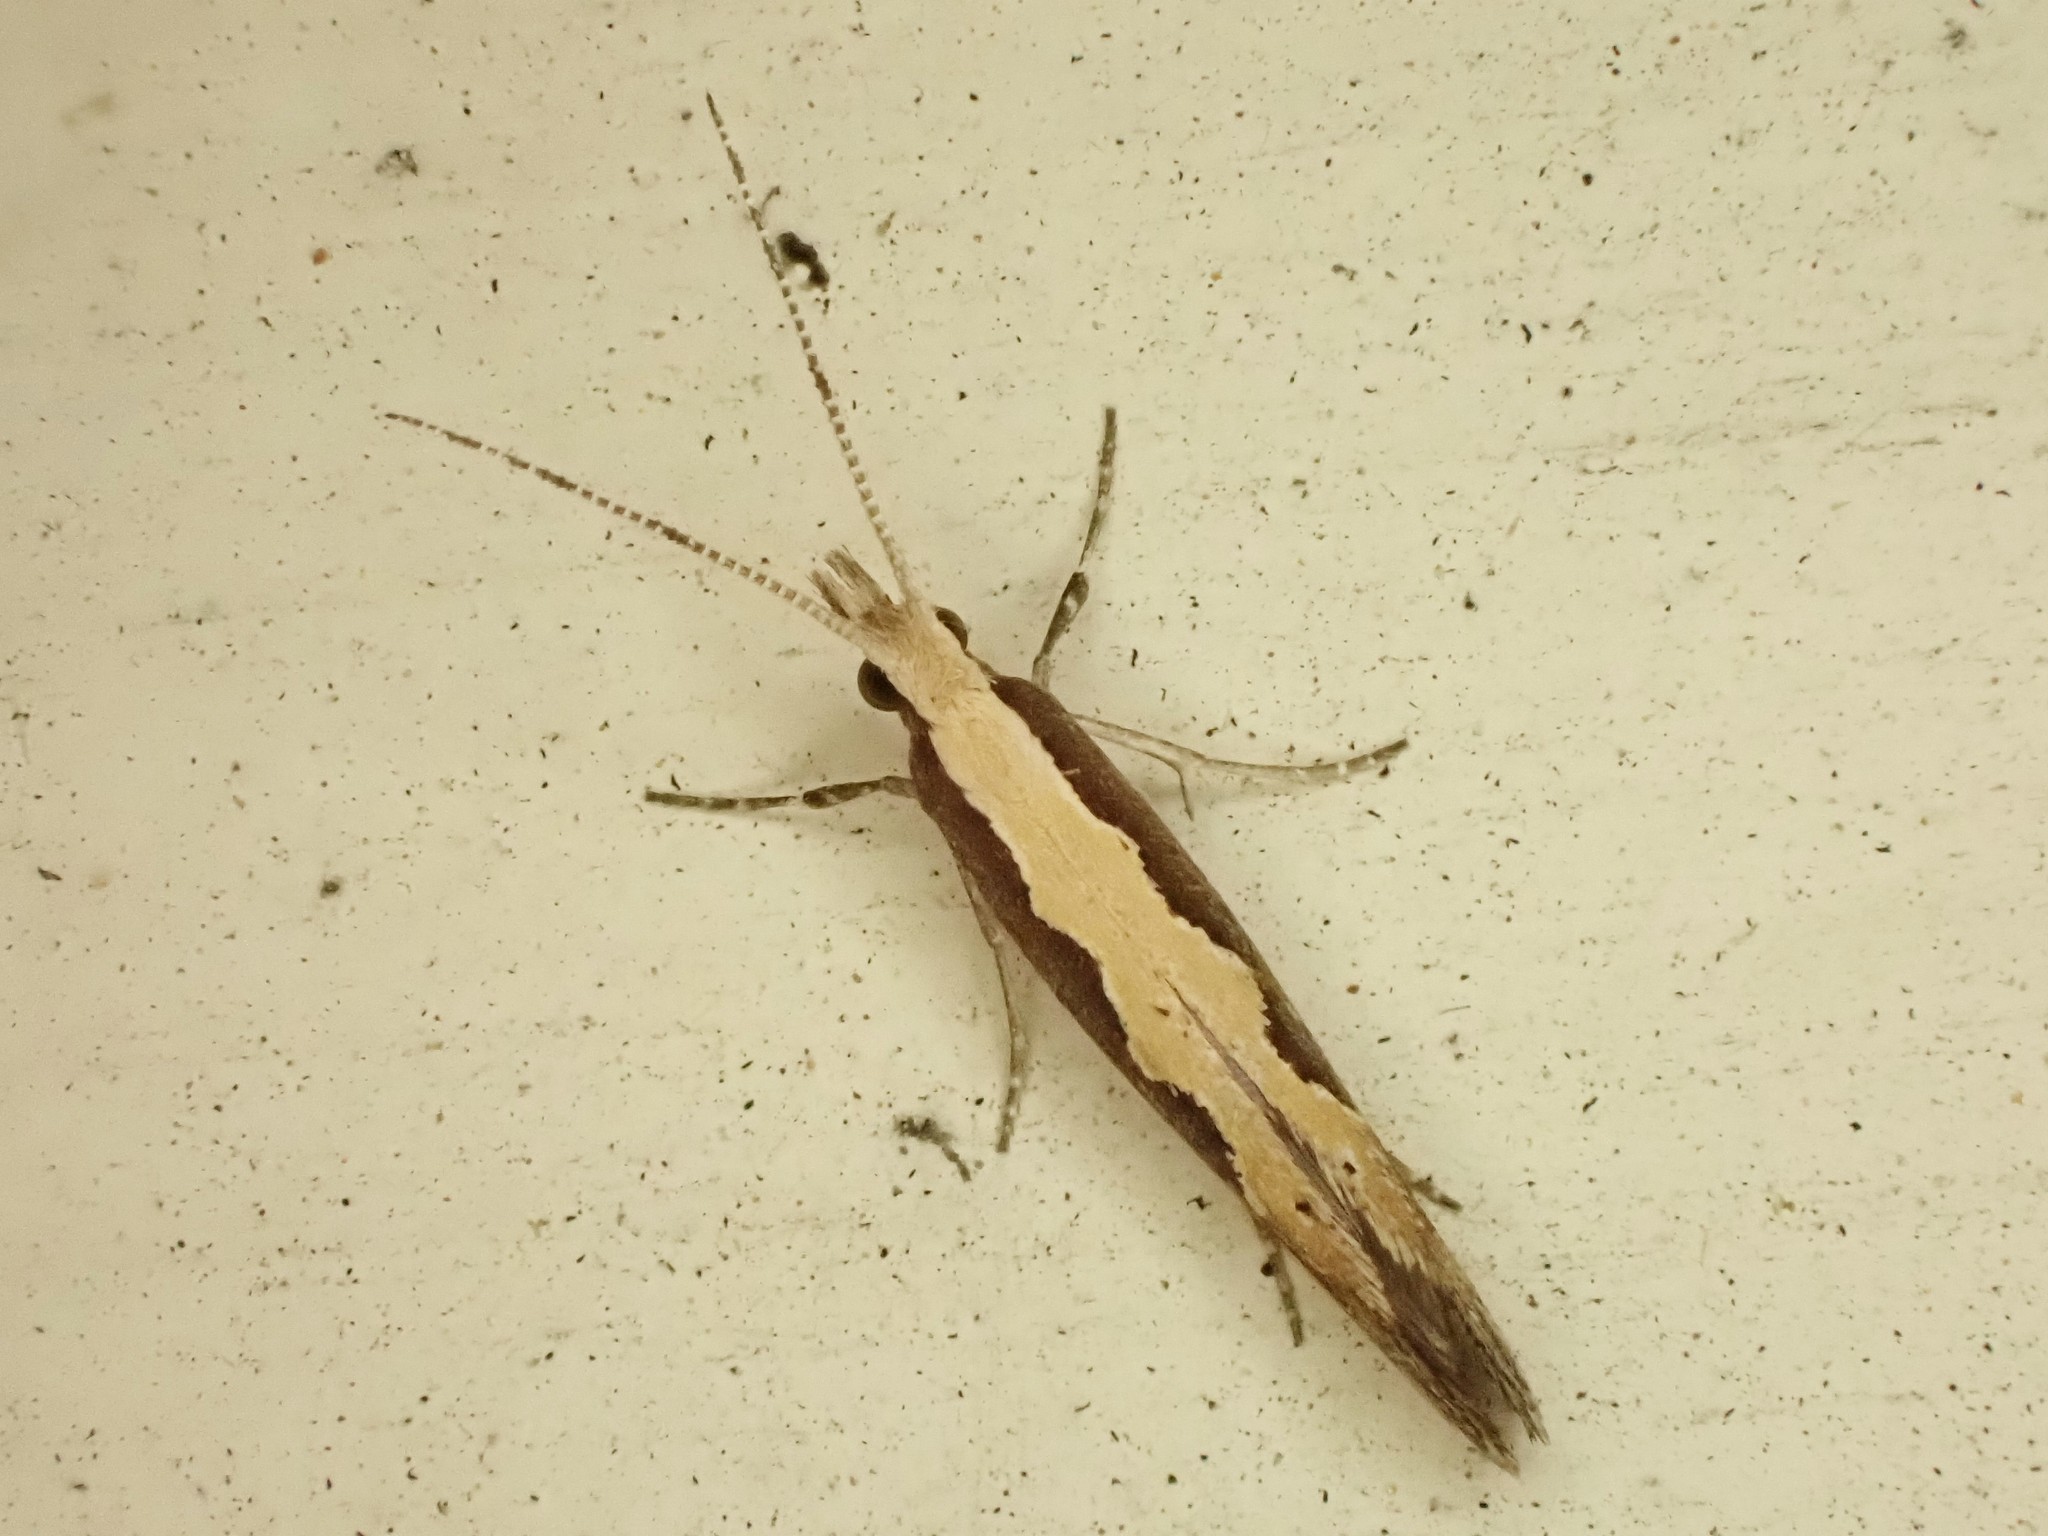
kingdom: Animalia
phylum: Arthropoda
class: Insecta
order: Lepidoptera
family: Plutellidae
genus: Plutella
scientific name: Plutella xylostella
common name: Diamond-back moth
